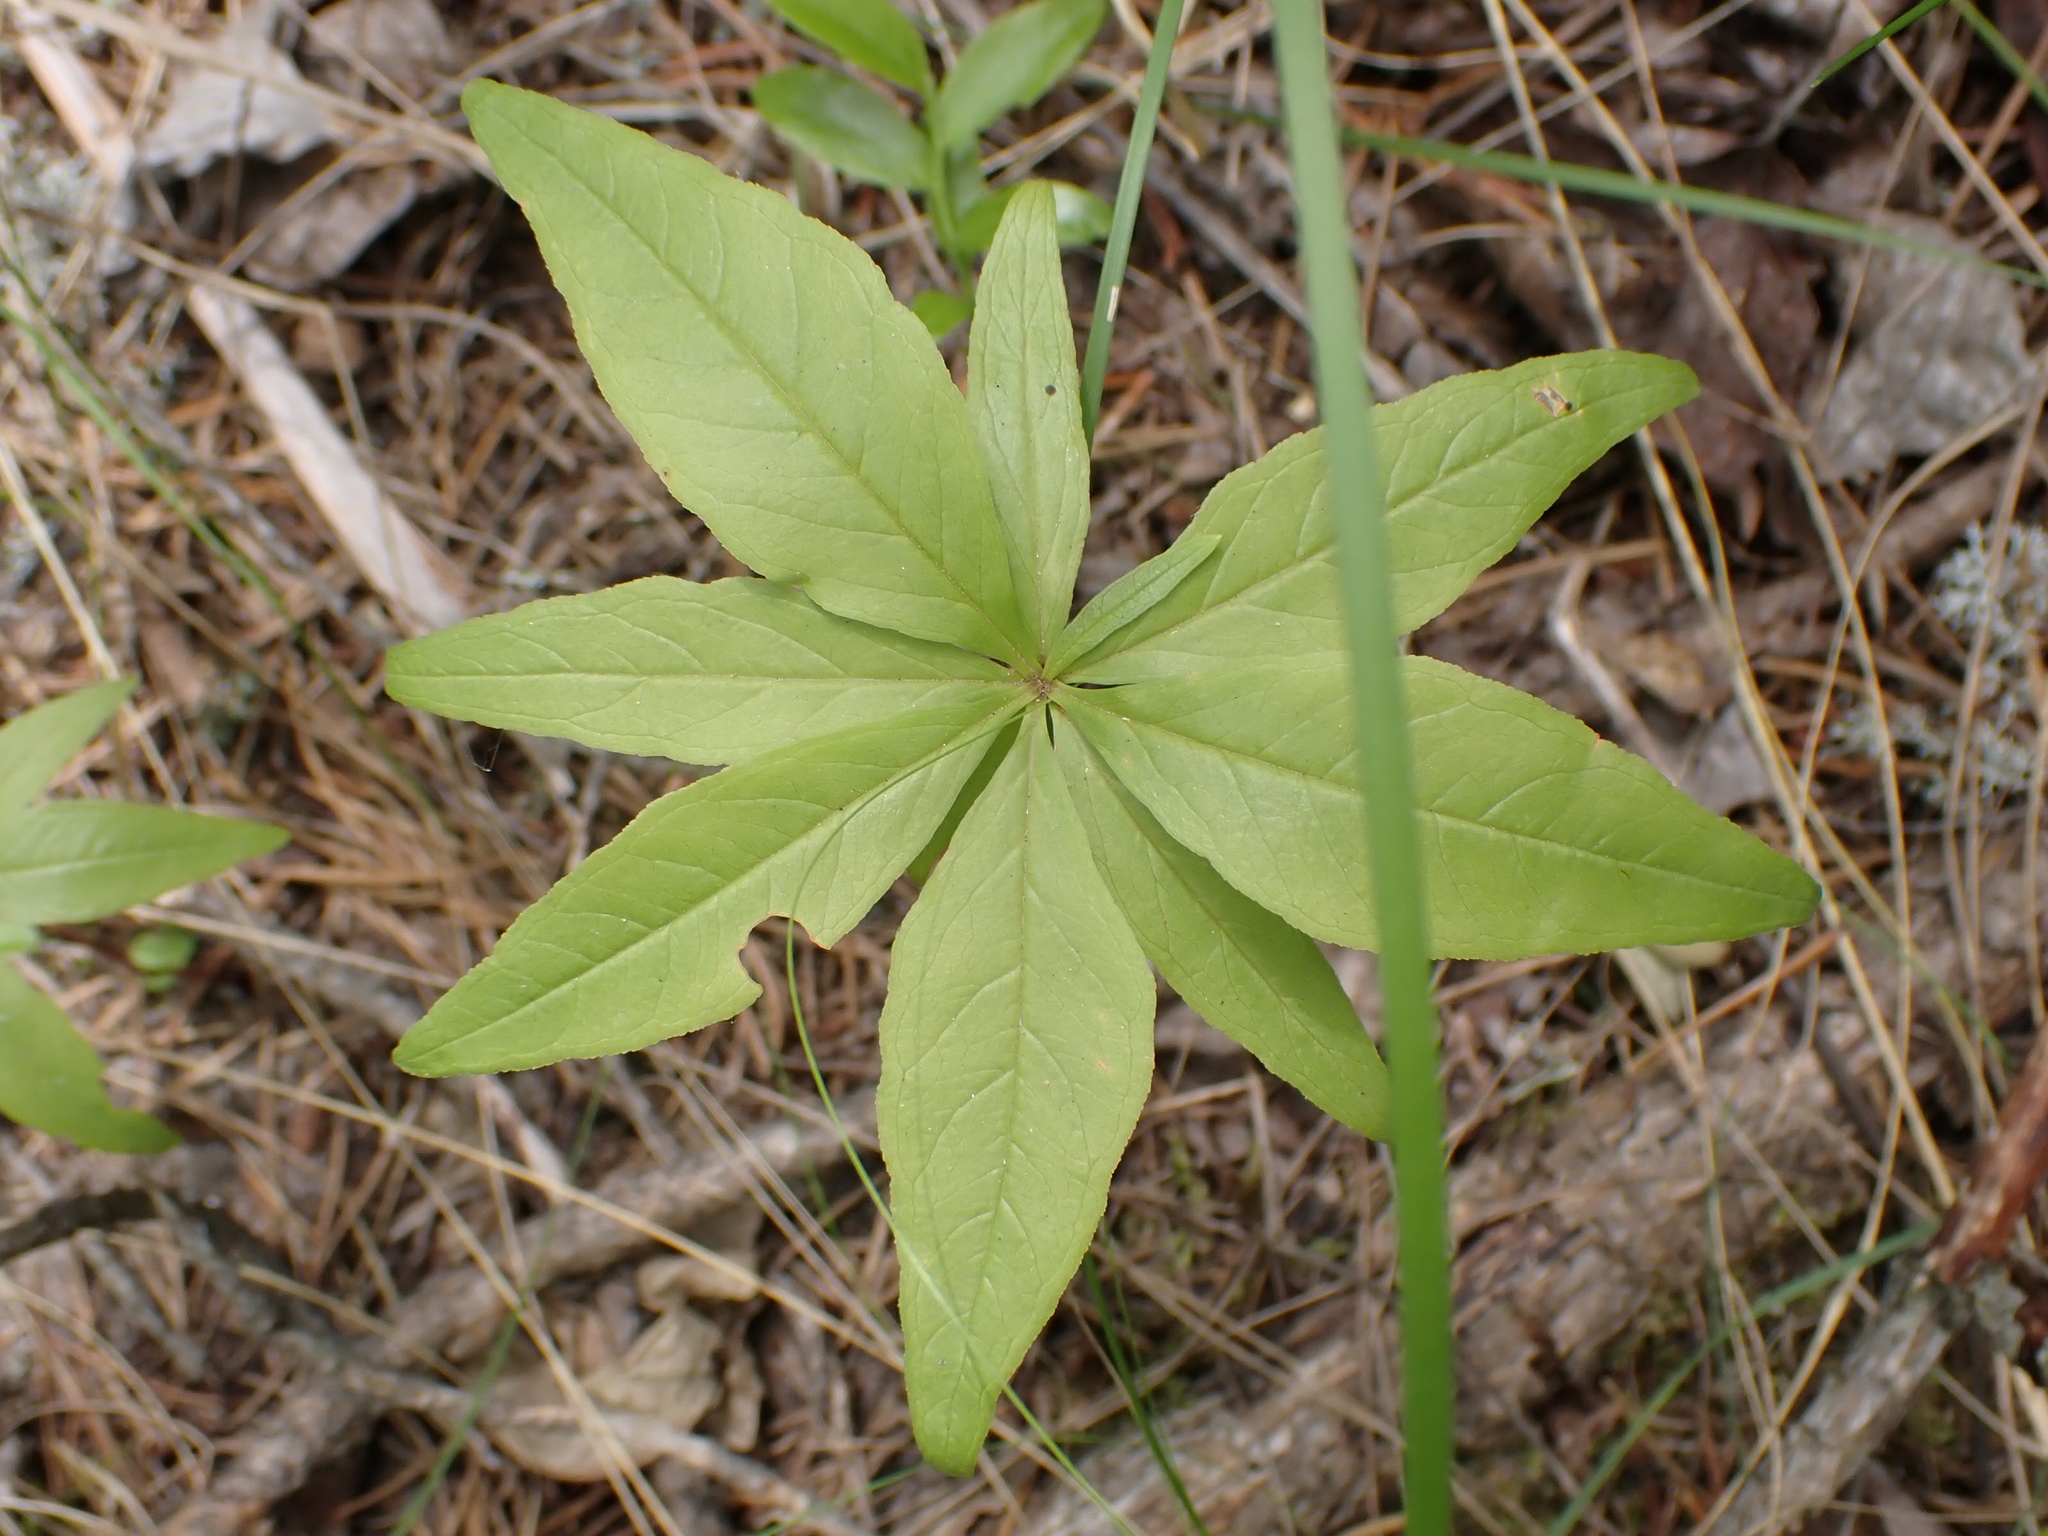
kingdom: Plantae
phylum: Tracheophyta
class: Magnoliopsida
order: Ericales
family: Primulaceae
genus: Lysimachia
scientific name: Lysimachia borealis
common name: American starflower
